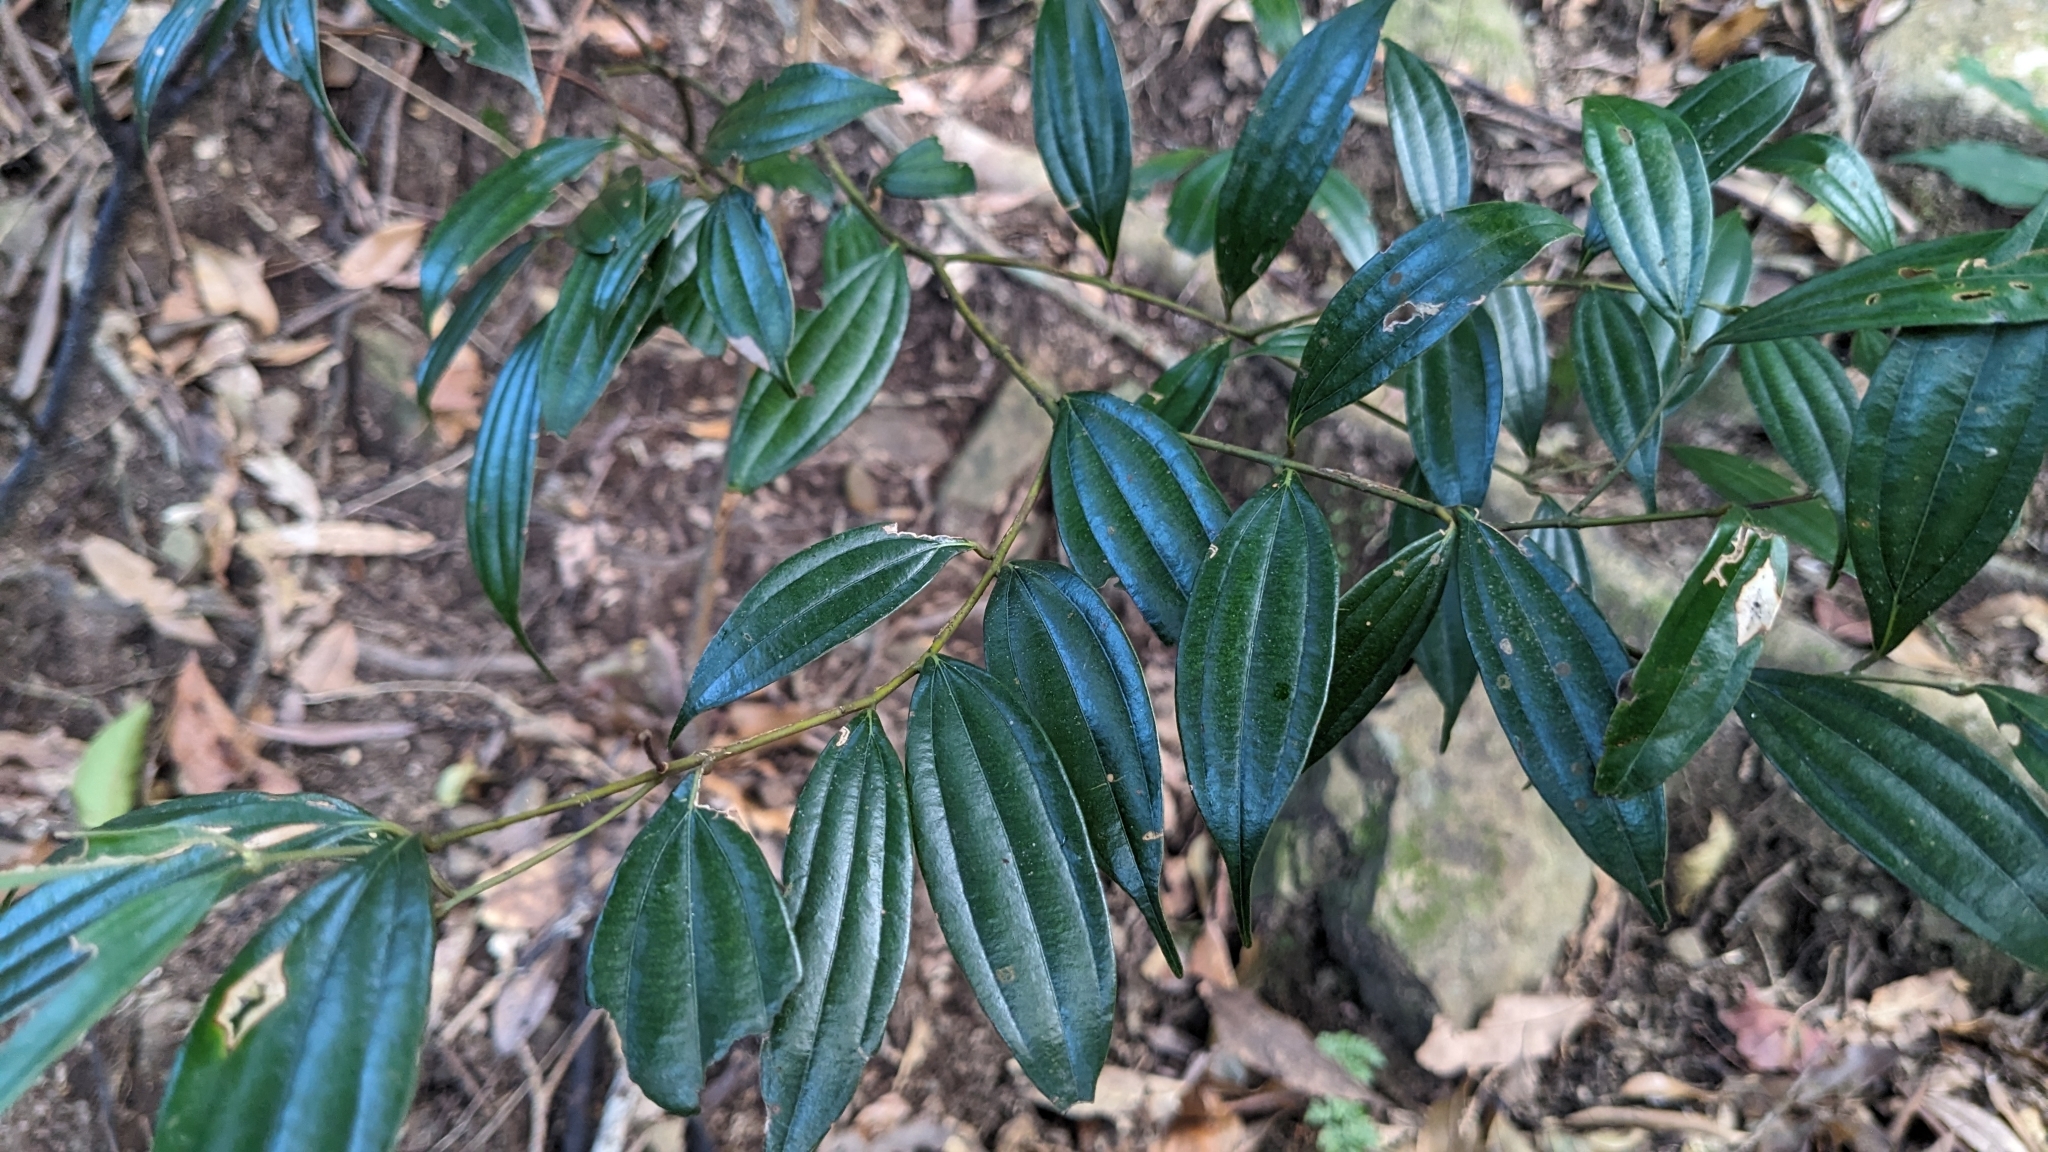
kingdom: Plantae
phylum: Tracheophyta
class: Magnoliopsida
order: Laurales
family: Lauraceae
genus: Cinnamomum
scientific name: Cinnamomum subavenium
